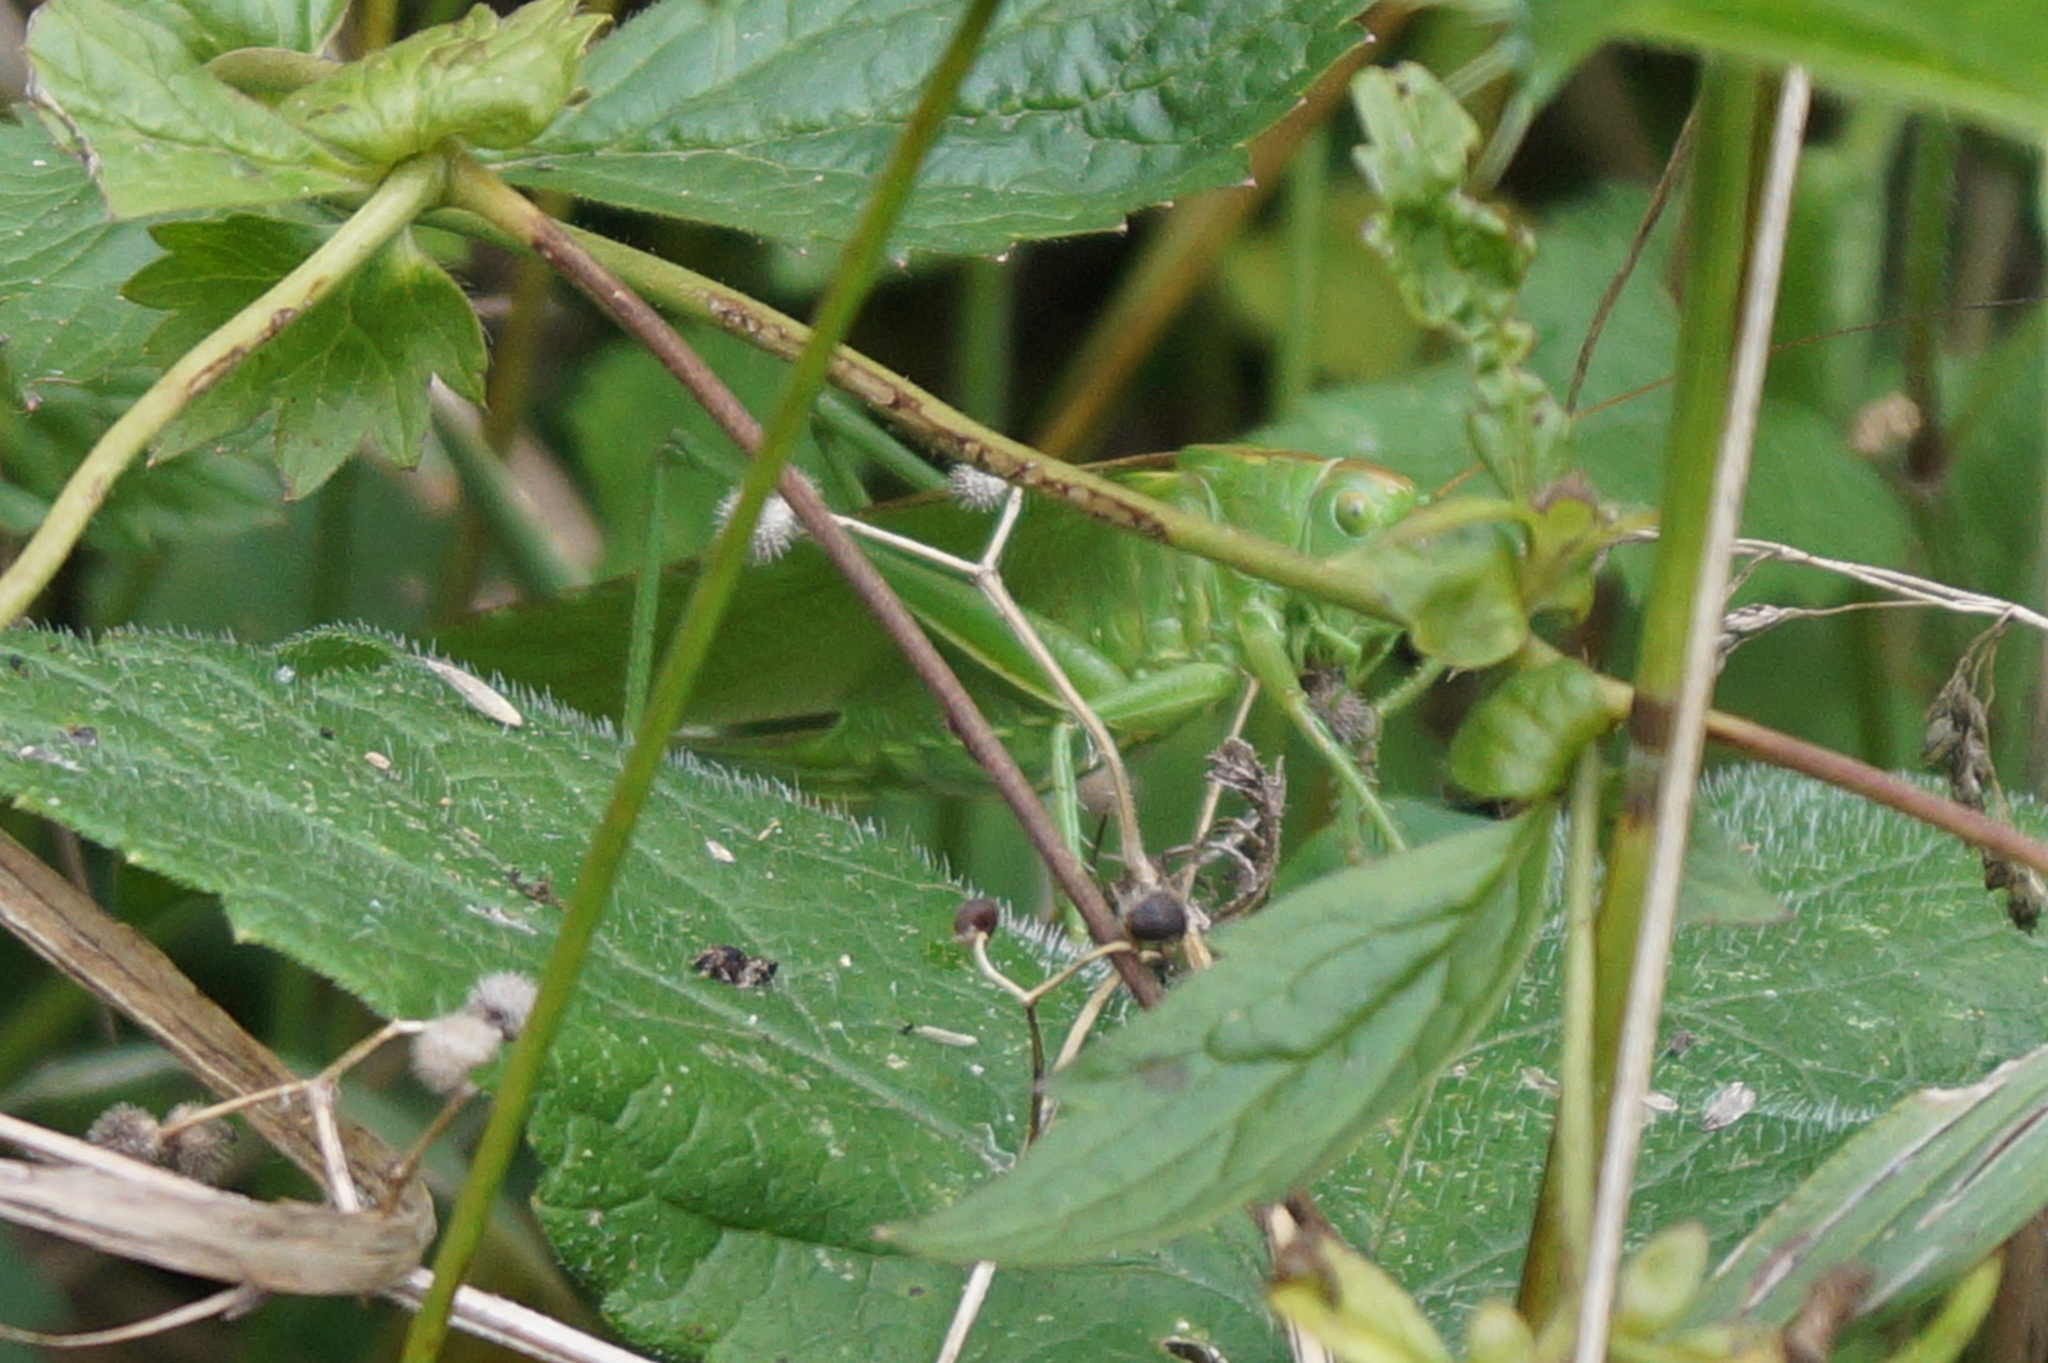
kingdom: Animalia
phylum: Arthropoda
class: Insecta
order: Orthoptera
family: Tettigoniidae
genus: Tettigonia
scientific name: Tettigonia viridissima
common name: Great green bush-cricket
